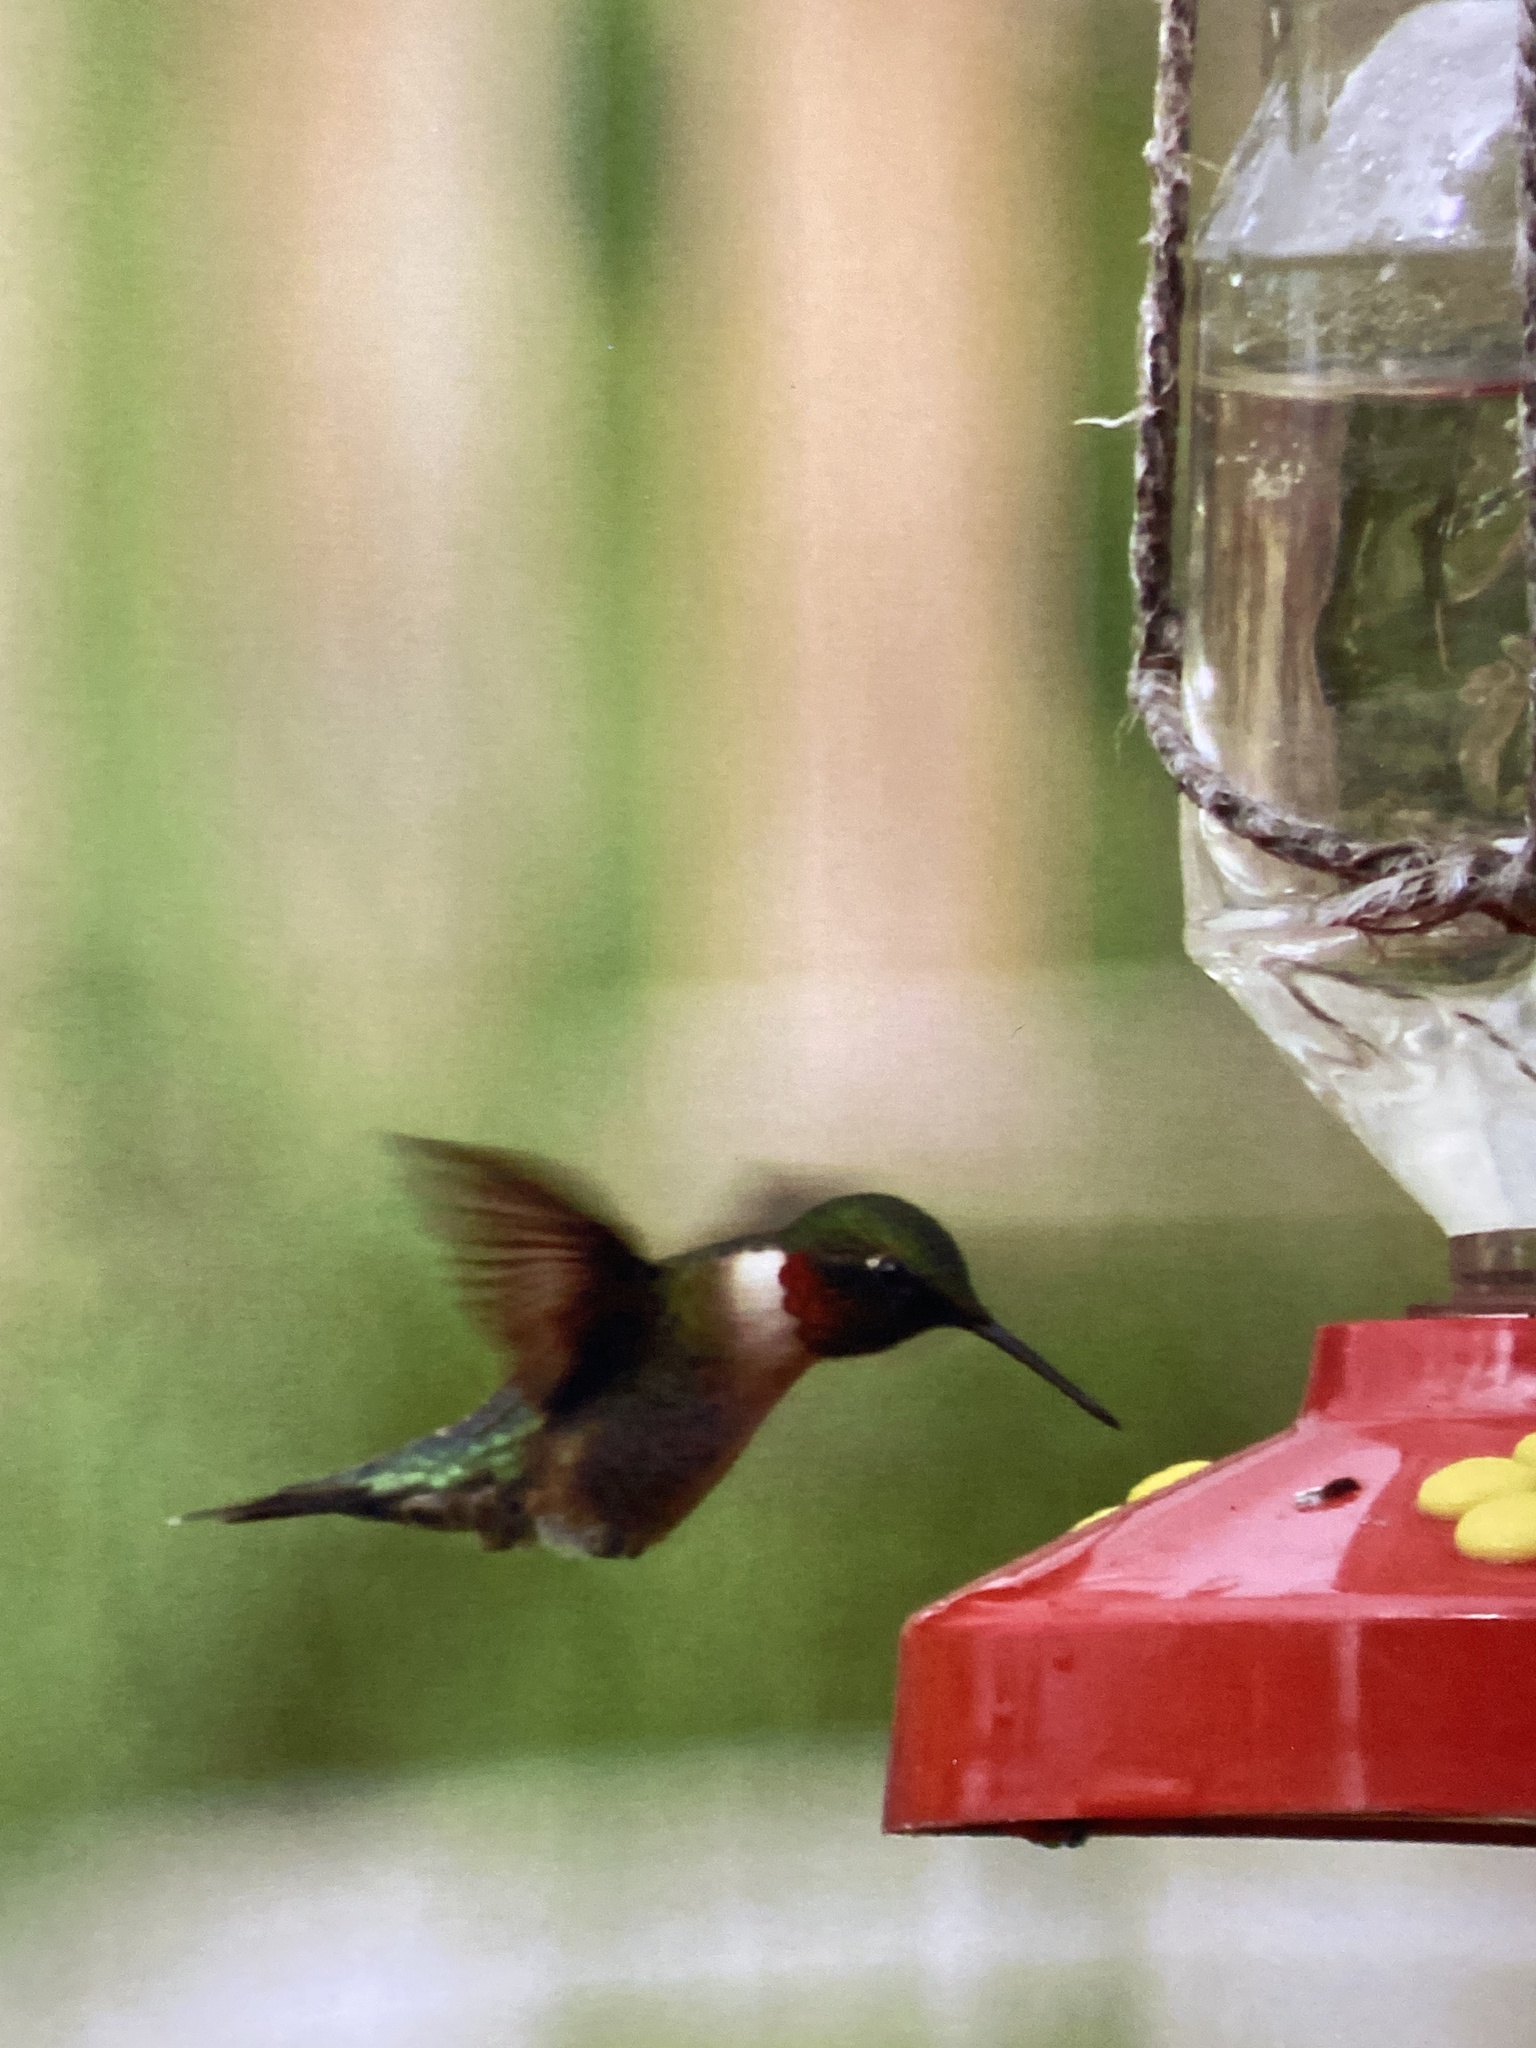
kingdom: Animalia
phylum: Chordata
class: Aves
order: Apodiformes
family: Trochilidae
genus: Archilochus
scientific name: Archilochus colubris
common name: Ruby-throated hummingbird
